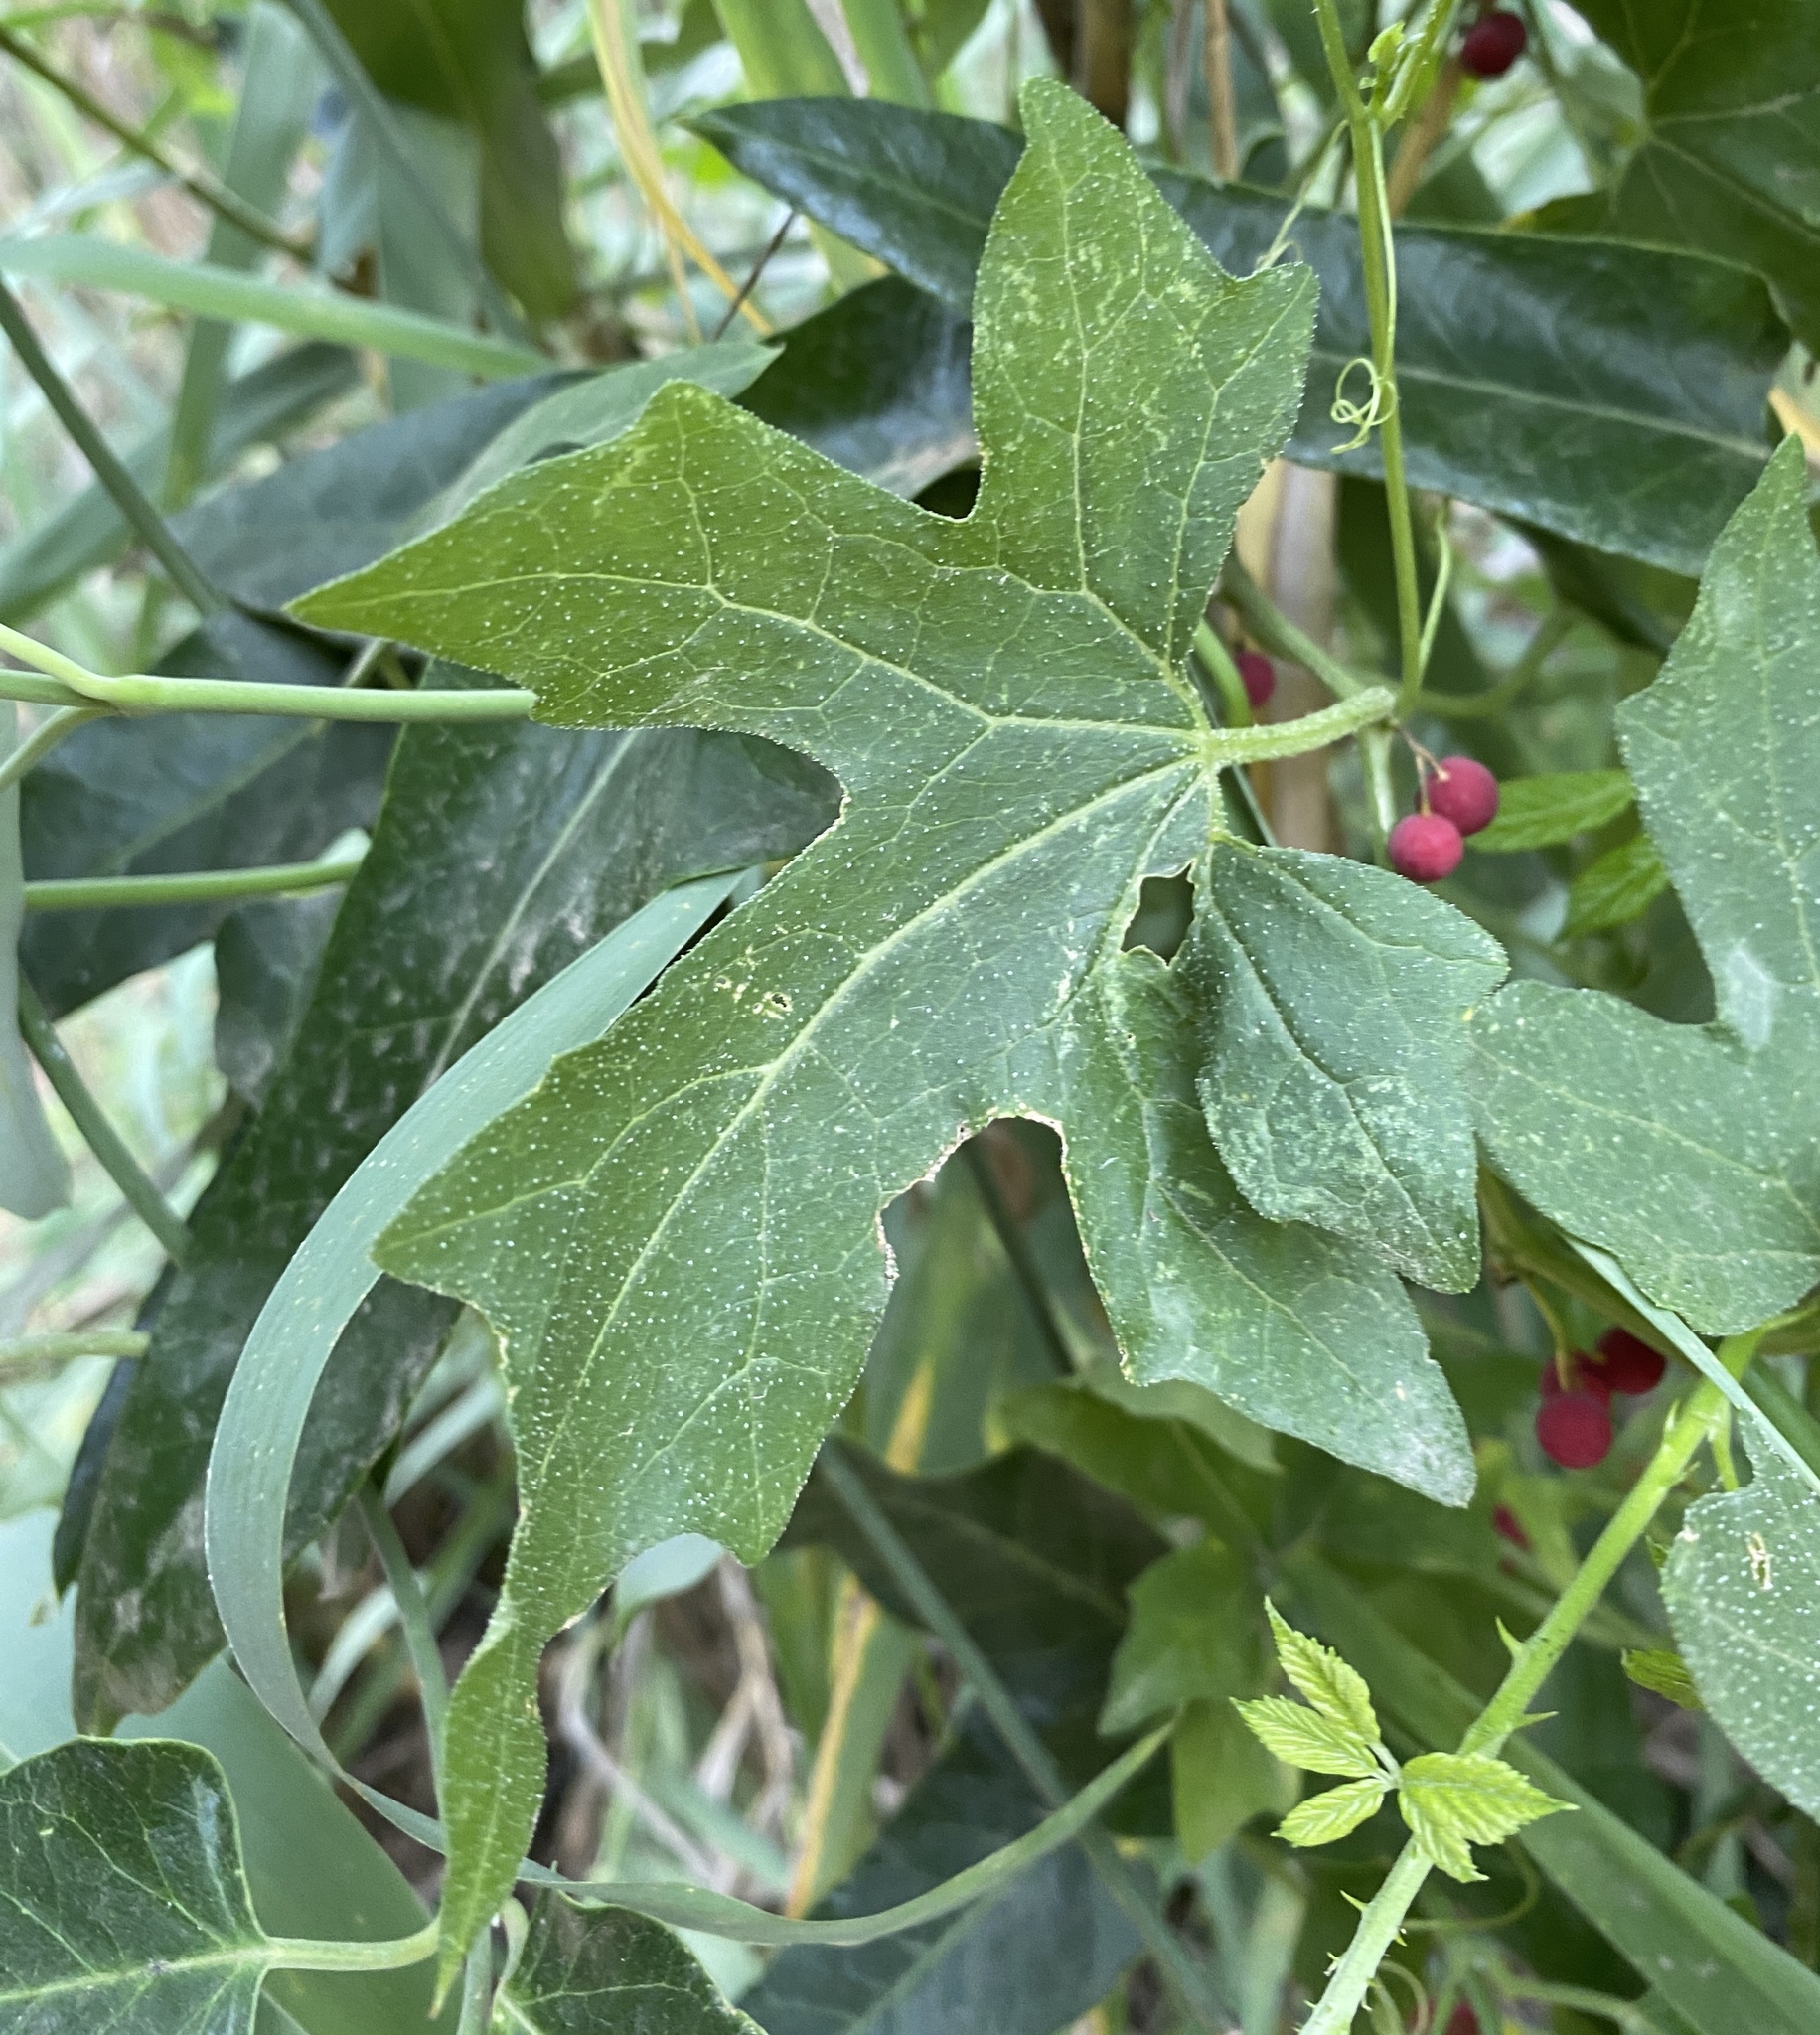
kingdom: Plantae
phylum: Tracheophyta
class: Magnoliopsida
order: Cucurbitales
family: Cucurbitaceae
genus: Bryonia
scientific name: Bryonia cretica
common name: Cretan bryony
